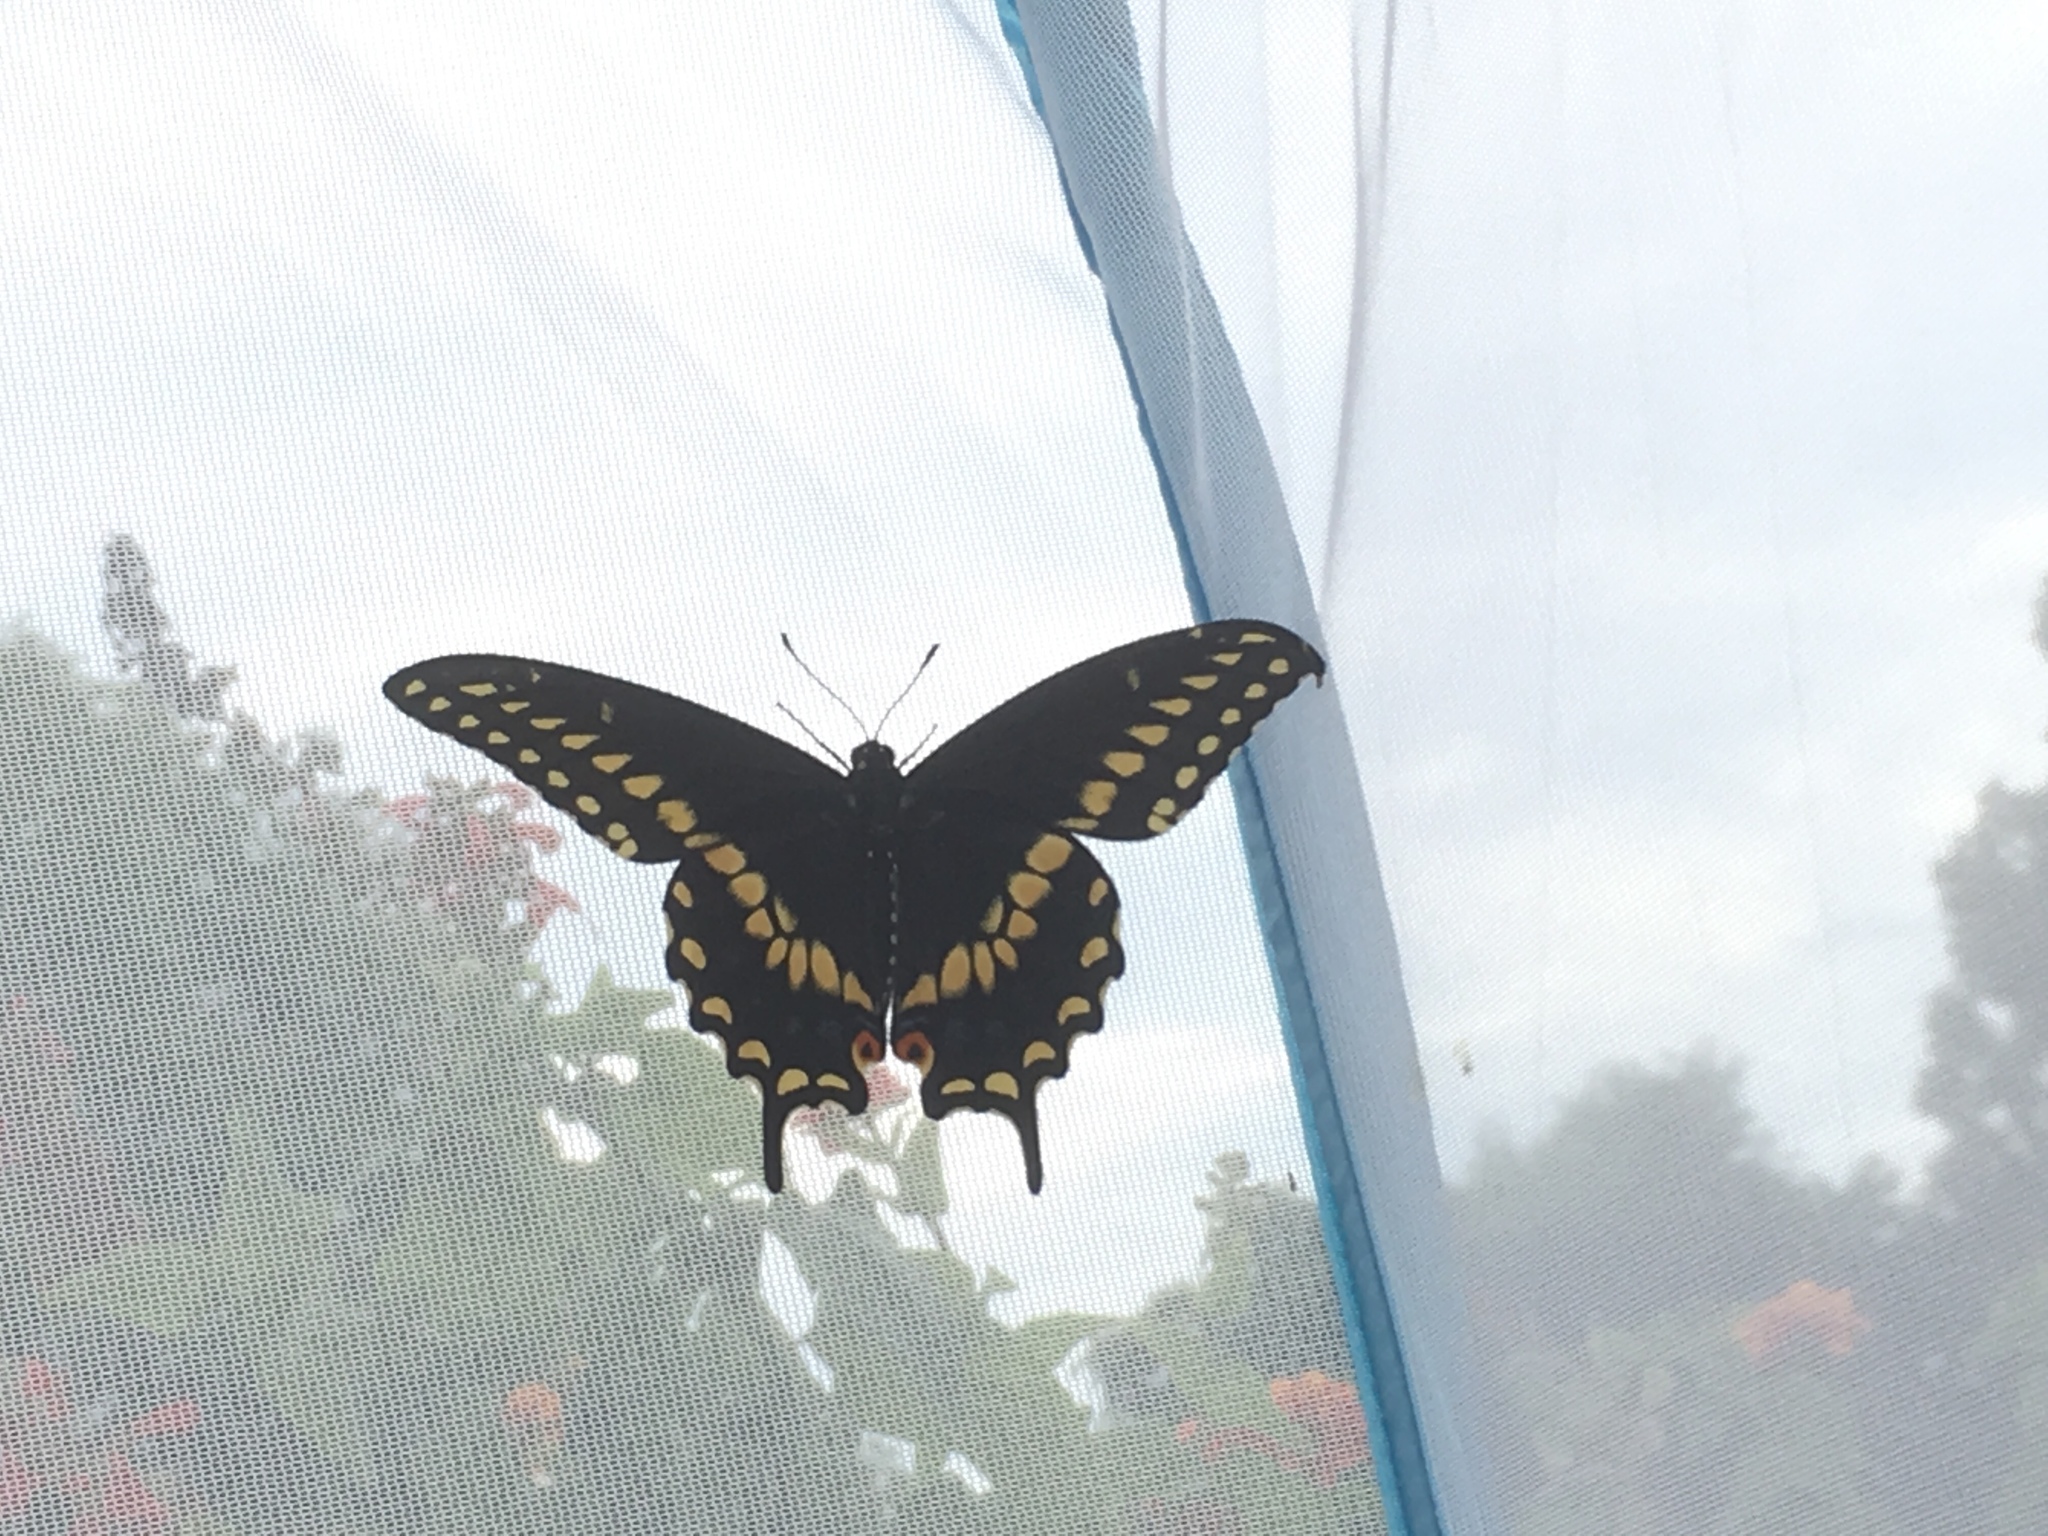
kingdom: Animalia
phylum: Arthropoda
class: Insecta
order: Lepidoptera
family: Papilionidae
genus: Papilio
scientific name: Papilio polyxenes
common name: Black swallowtail
